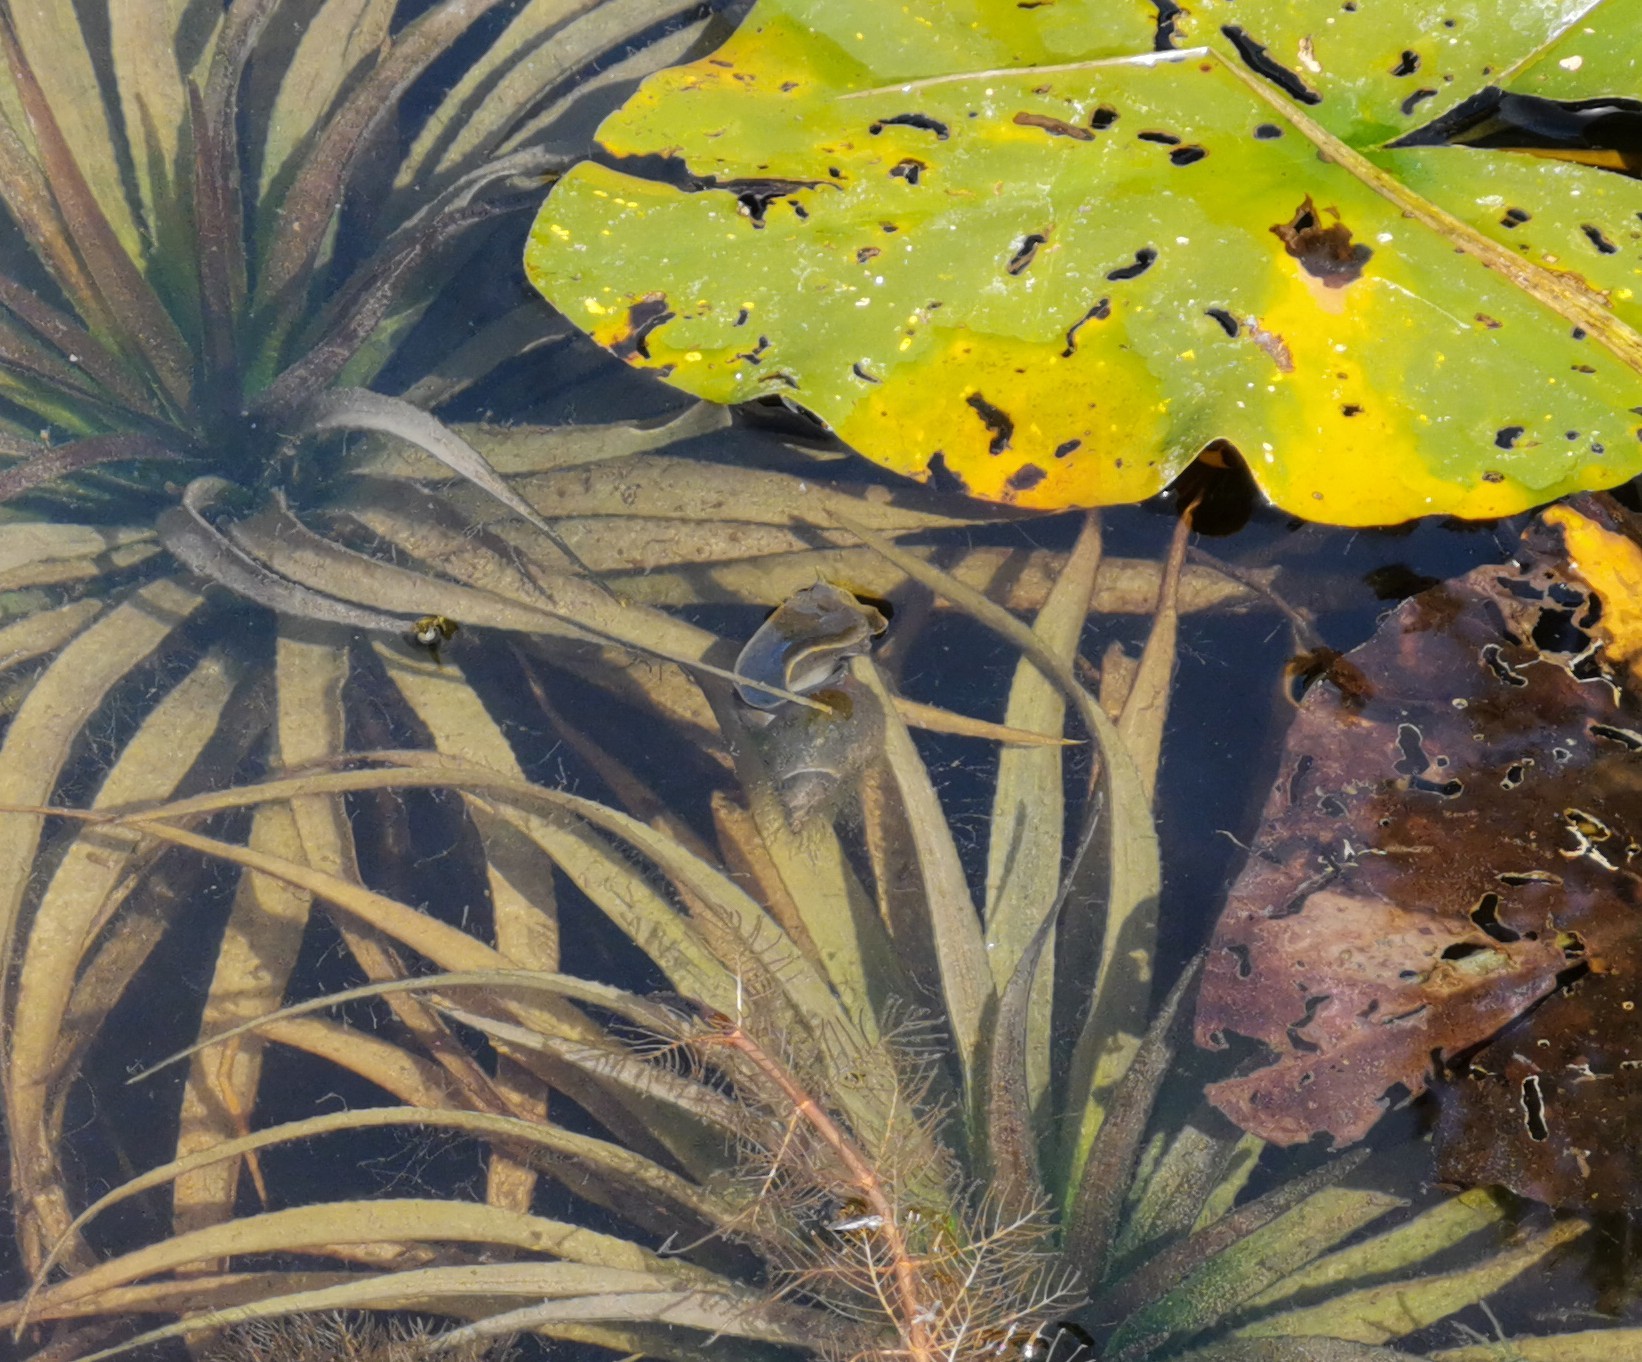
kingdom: Animalia
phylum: Mollusca
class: Gastropoda
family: Lymnaeidae
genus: Lymnaea
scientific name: Lymnaea stagnalis
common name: Great pond snail
